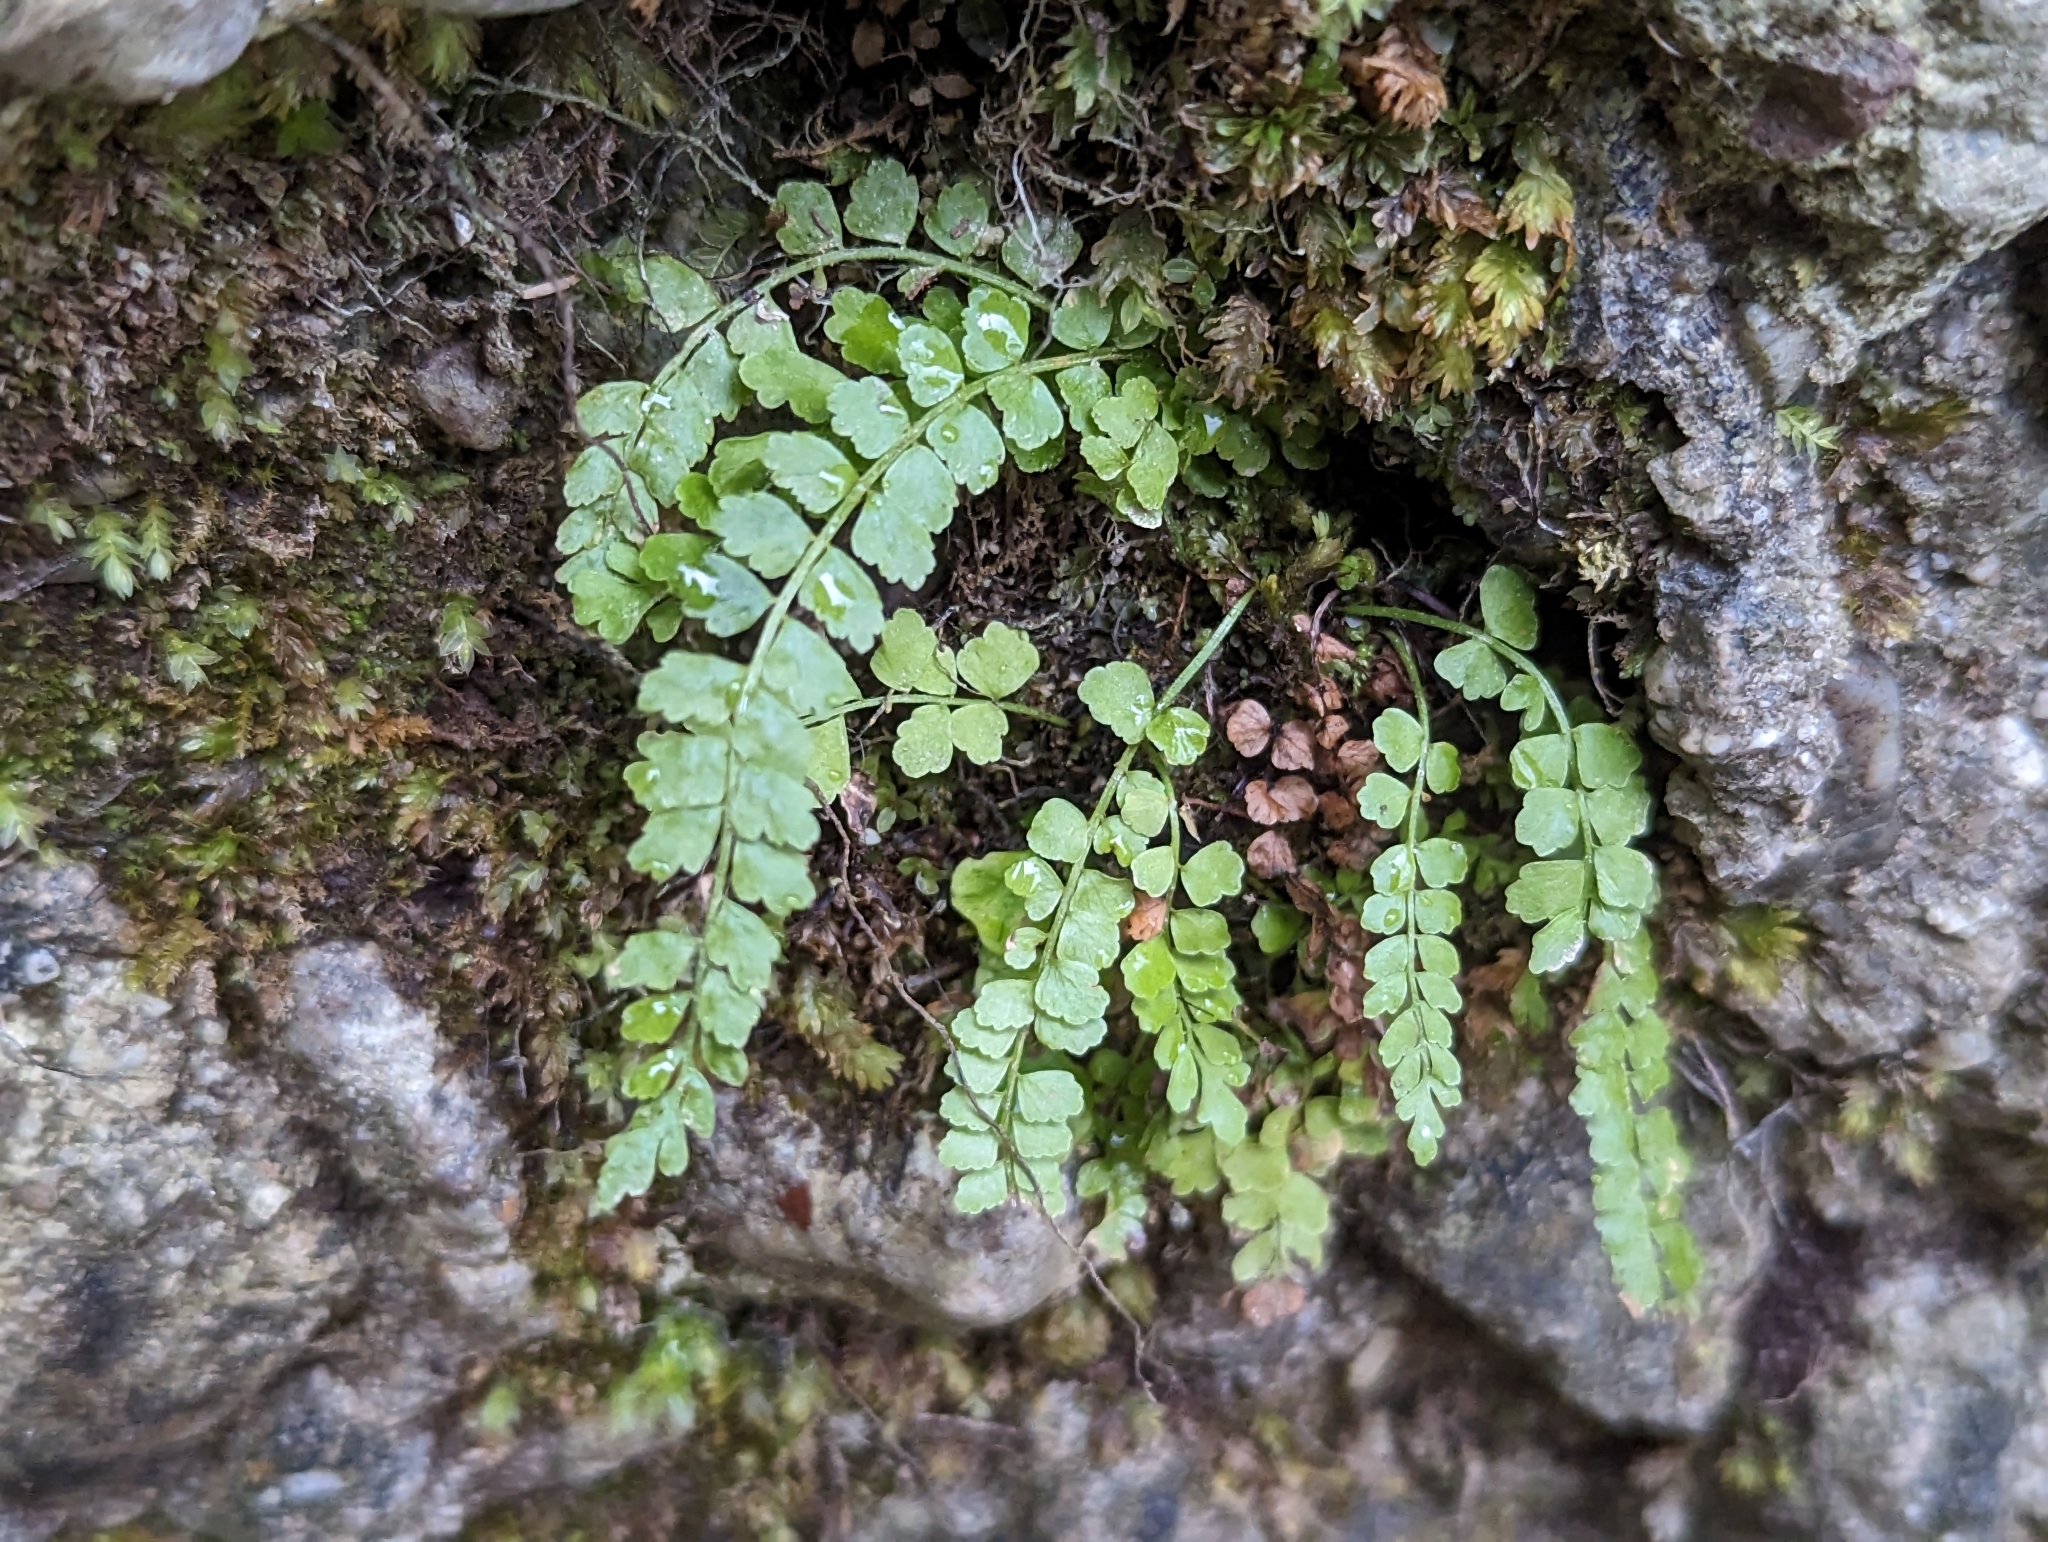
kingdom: Plantae
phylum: Tracheophyta
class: Polypodiopsida
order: Polypodiales
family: Aspleniaceae
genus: Asplenium
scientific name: Asplenium viride
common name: Green spleenwort
